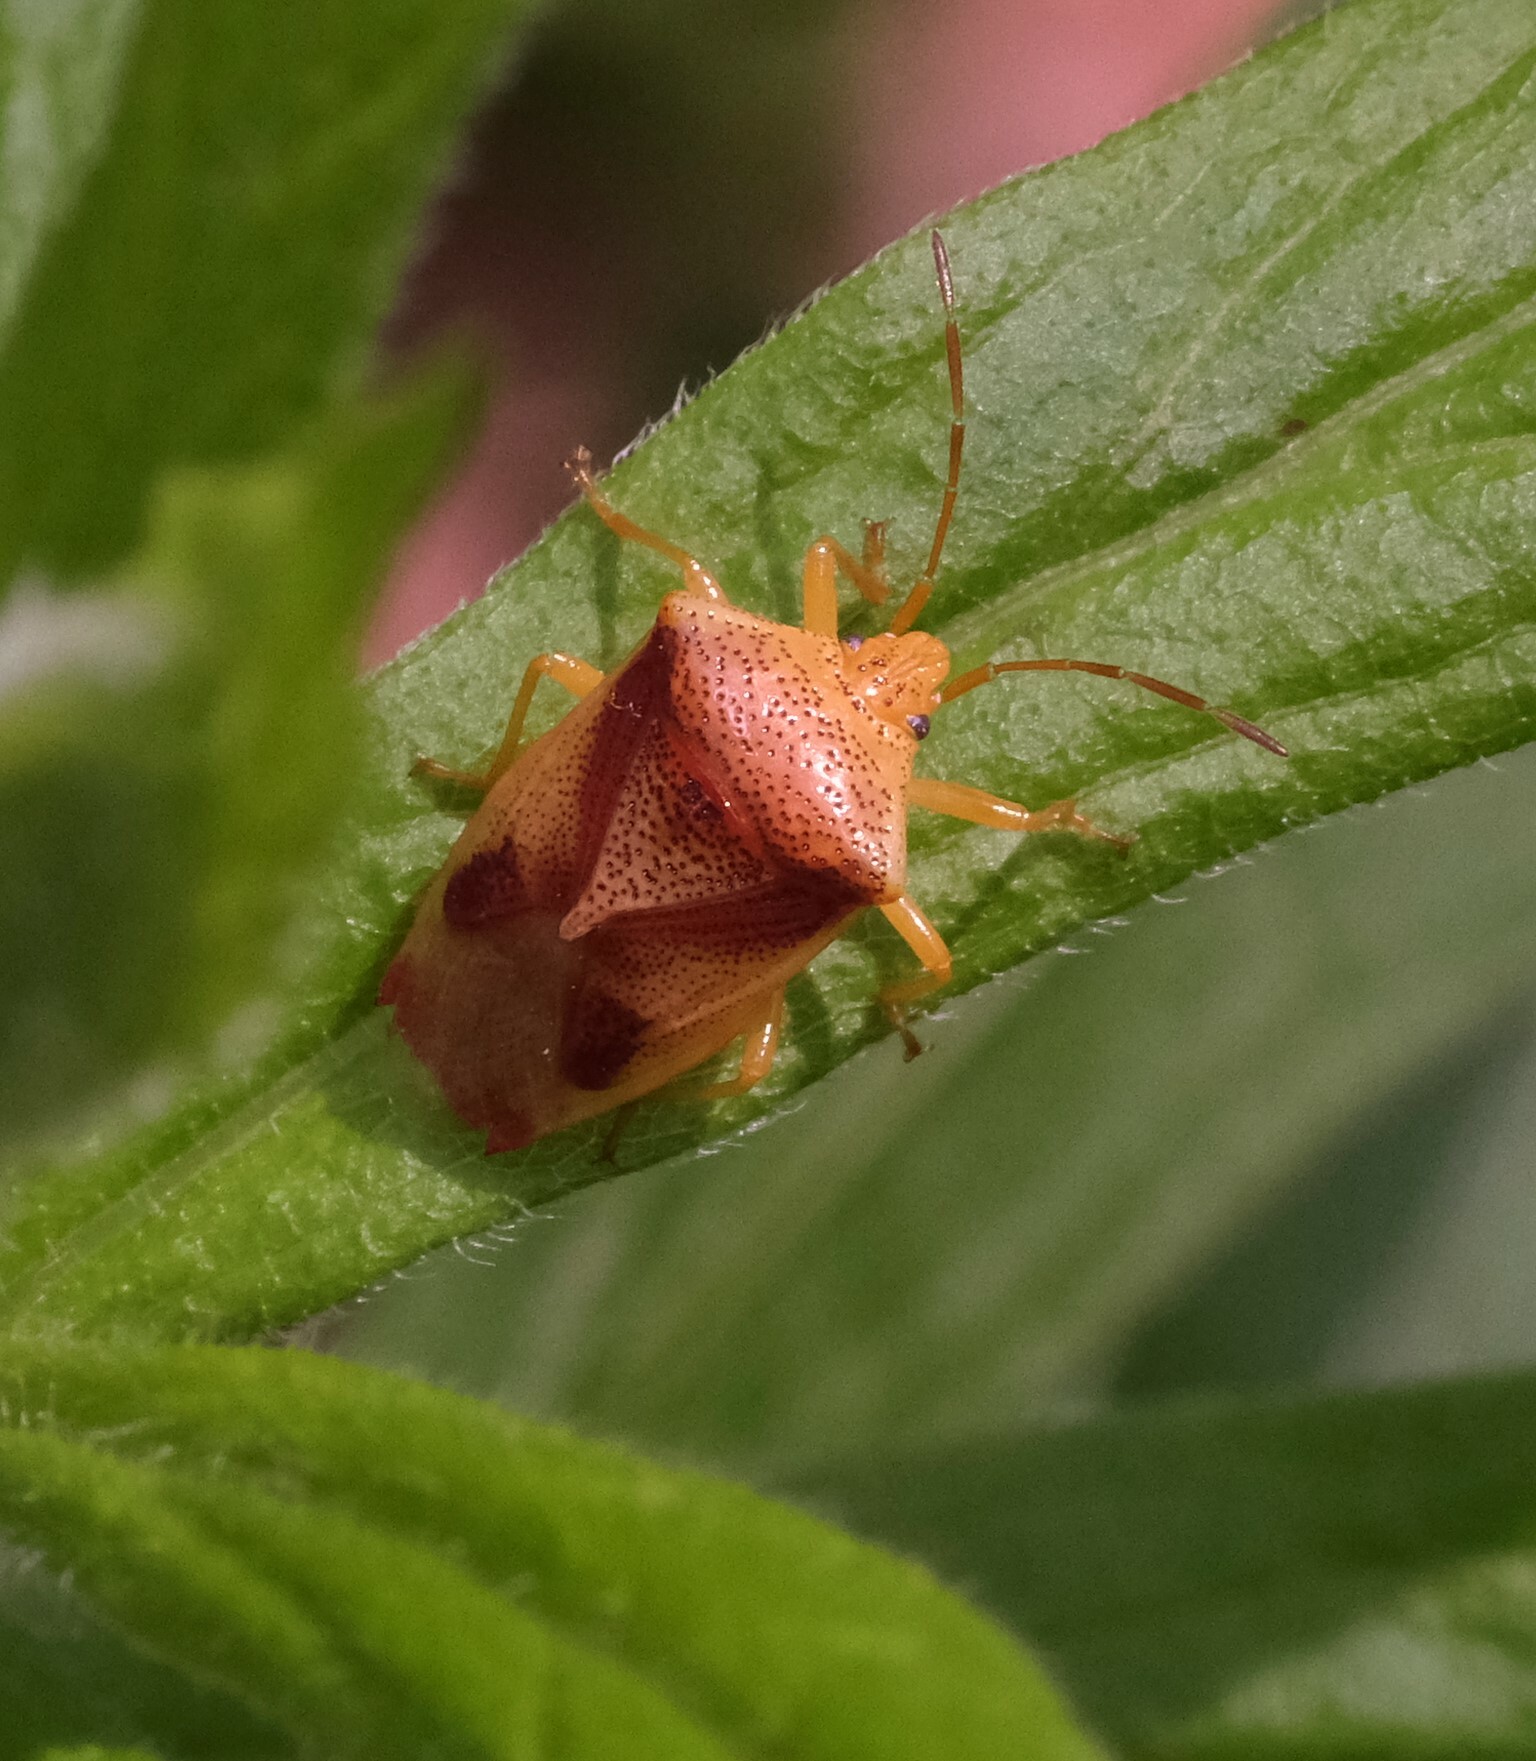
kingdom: Animalia
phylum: Arthropoda
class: Insecta
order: Hemiptera
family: Acanthosomatidae
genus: Elasmostethus
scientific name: Elasmostethus cruciatus
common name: Red-cross shield bug
